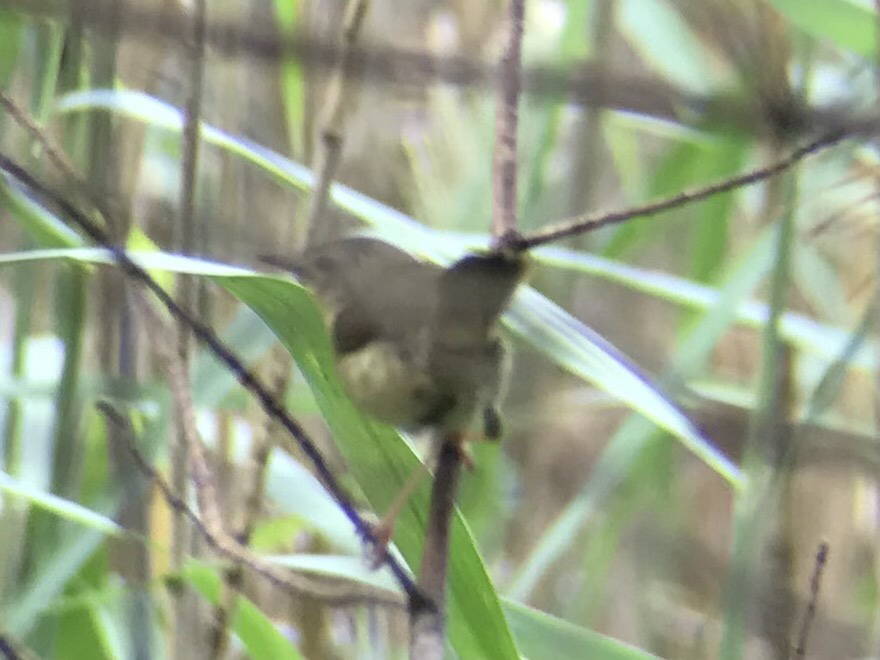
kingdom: Animalia
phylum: Chordata
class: Aves
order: Passeriformes
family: Mimidae
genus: Dumetella
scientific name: Dumetella carolinensis
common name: Gray catbird
